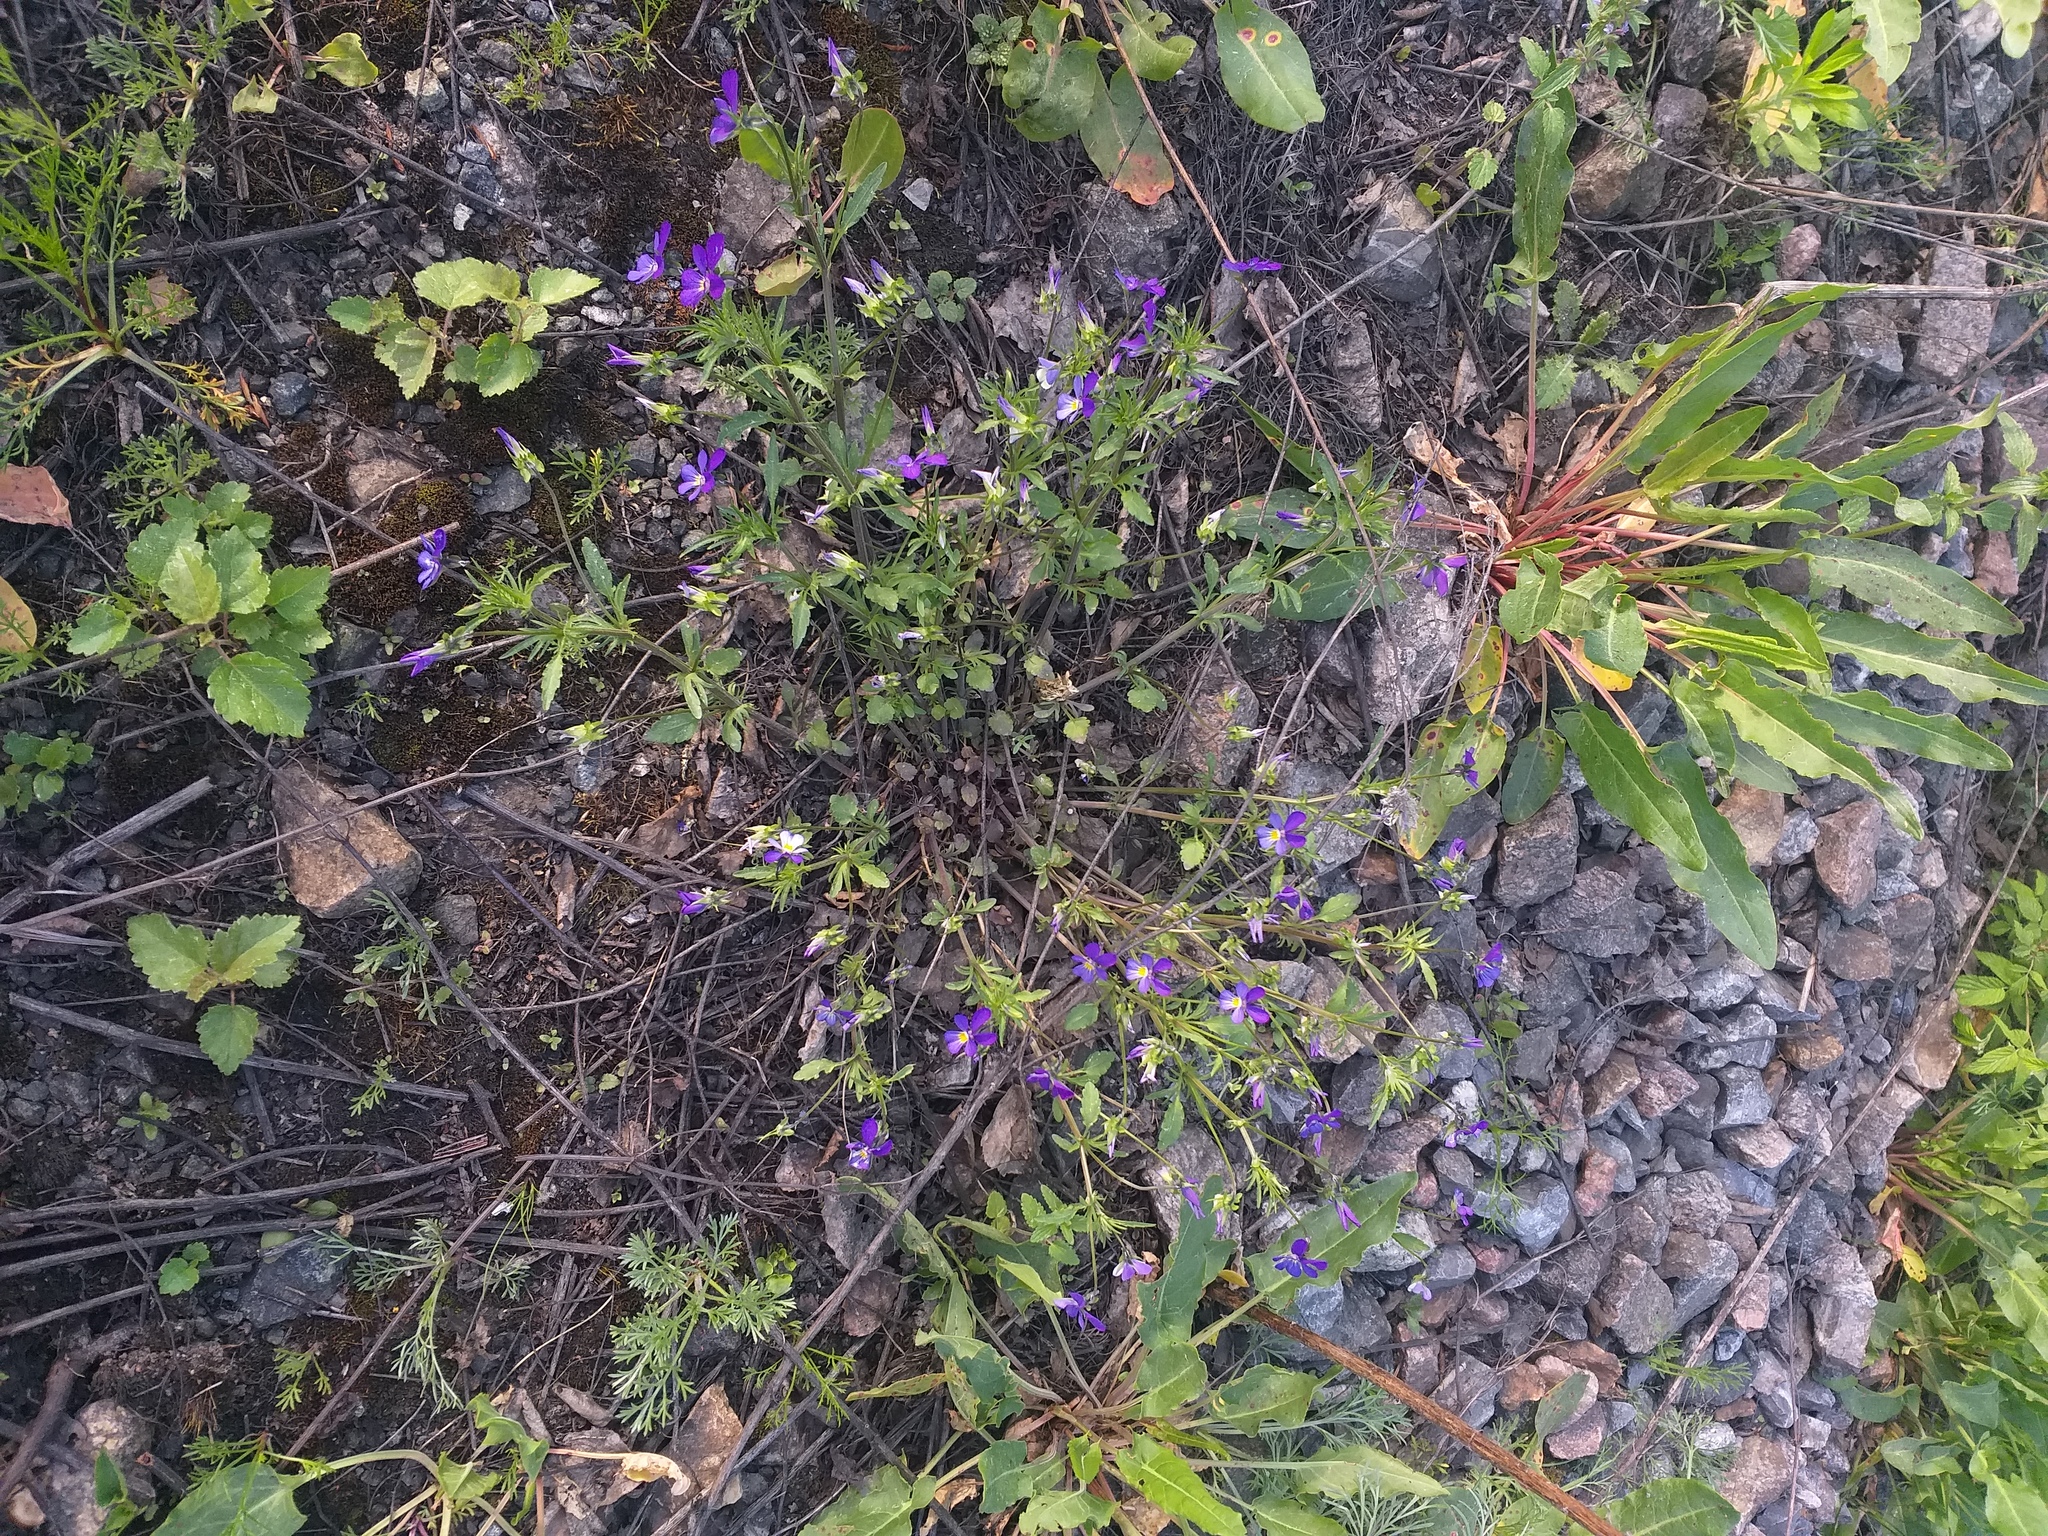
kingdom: Plantae
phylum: Tracheophyta
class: Magnoliopsida
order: Malpighiales
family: Violaceae
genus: Viola
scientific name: Viola tricolor
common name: Pansy
